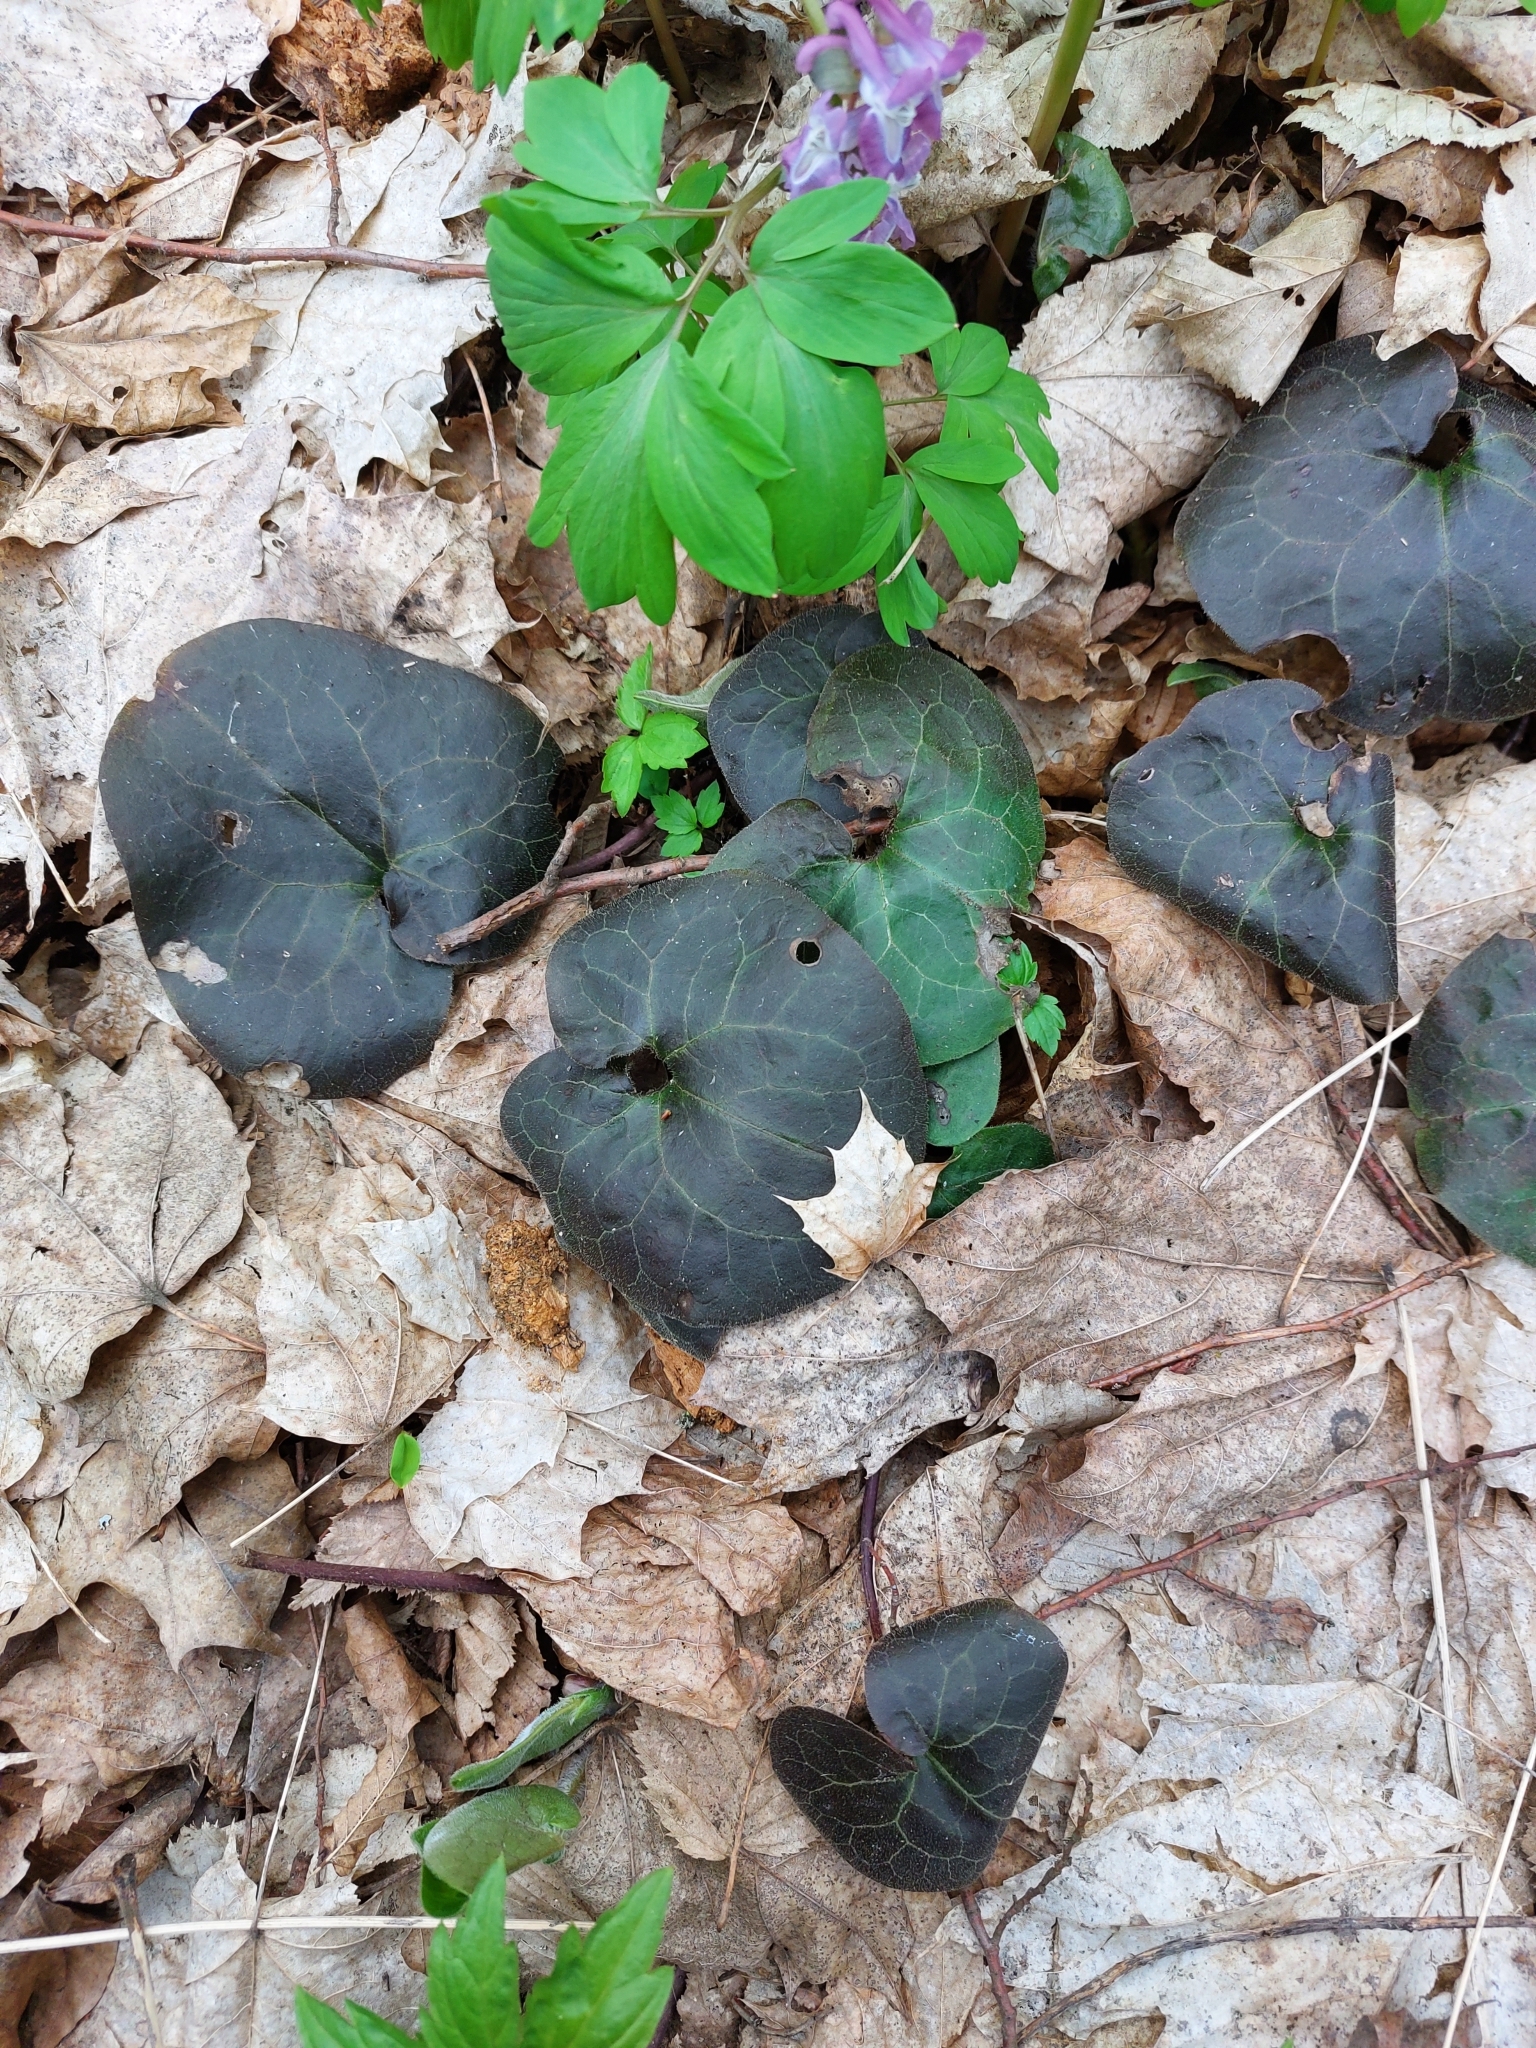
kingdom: Plantae
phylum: Tracheophyta
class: Magnoliopsida
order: Piperales
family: Aristolochiaceae
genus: Asarum
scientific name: Asarum europaeum
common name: Asarabacca
